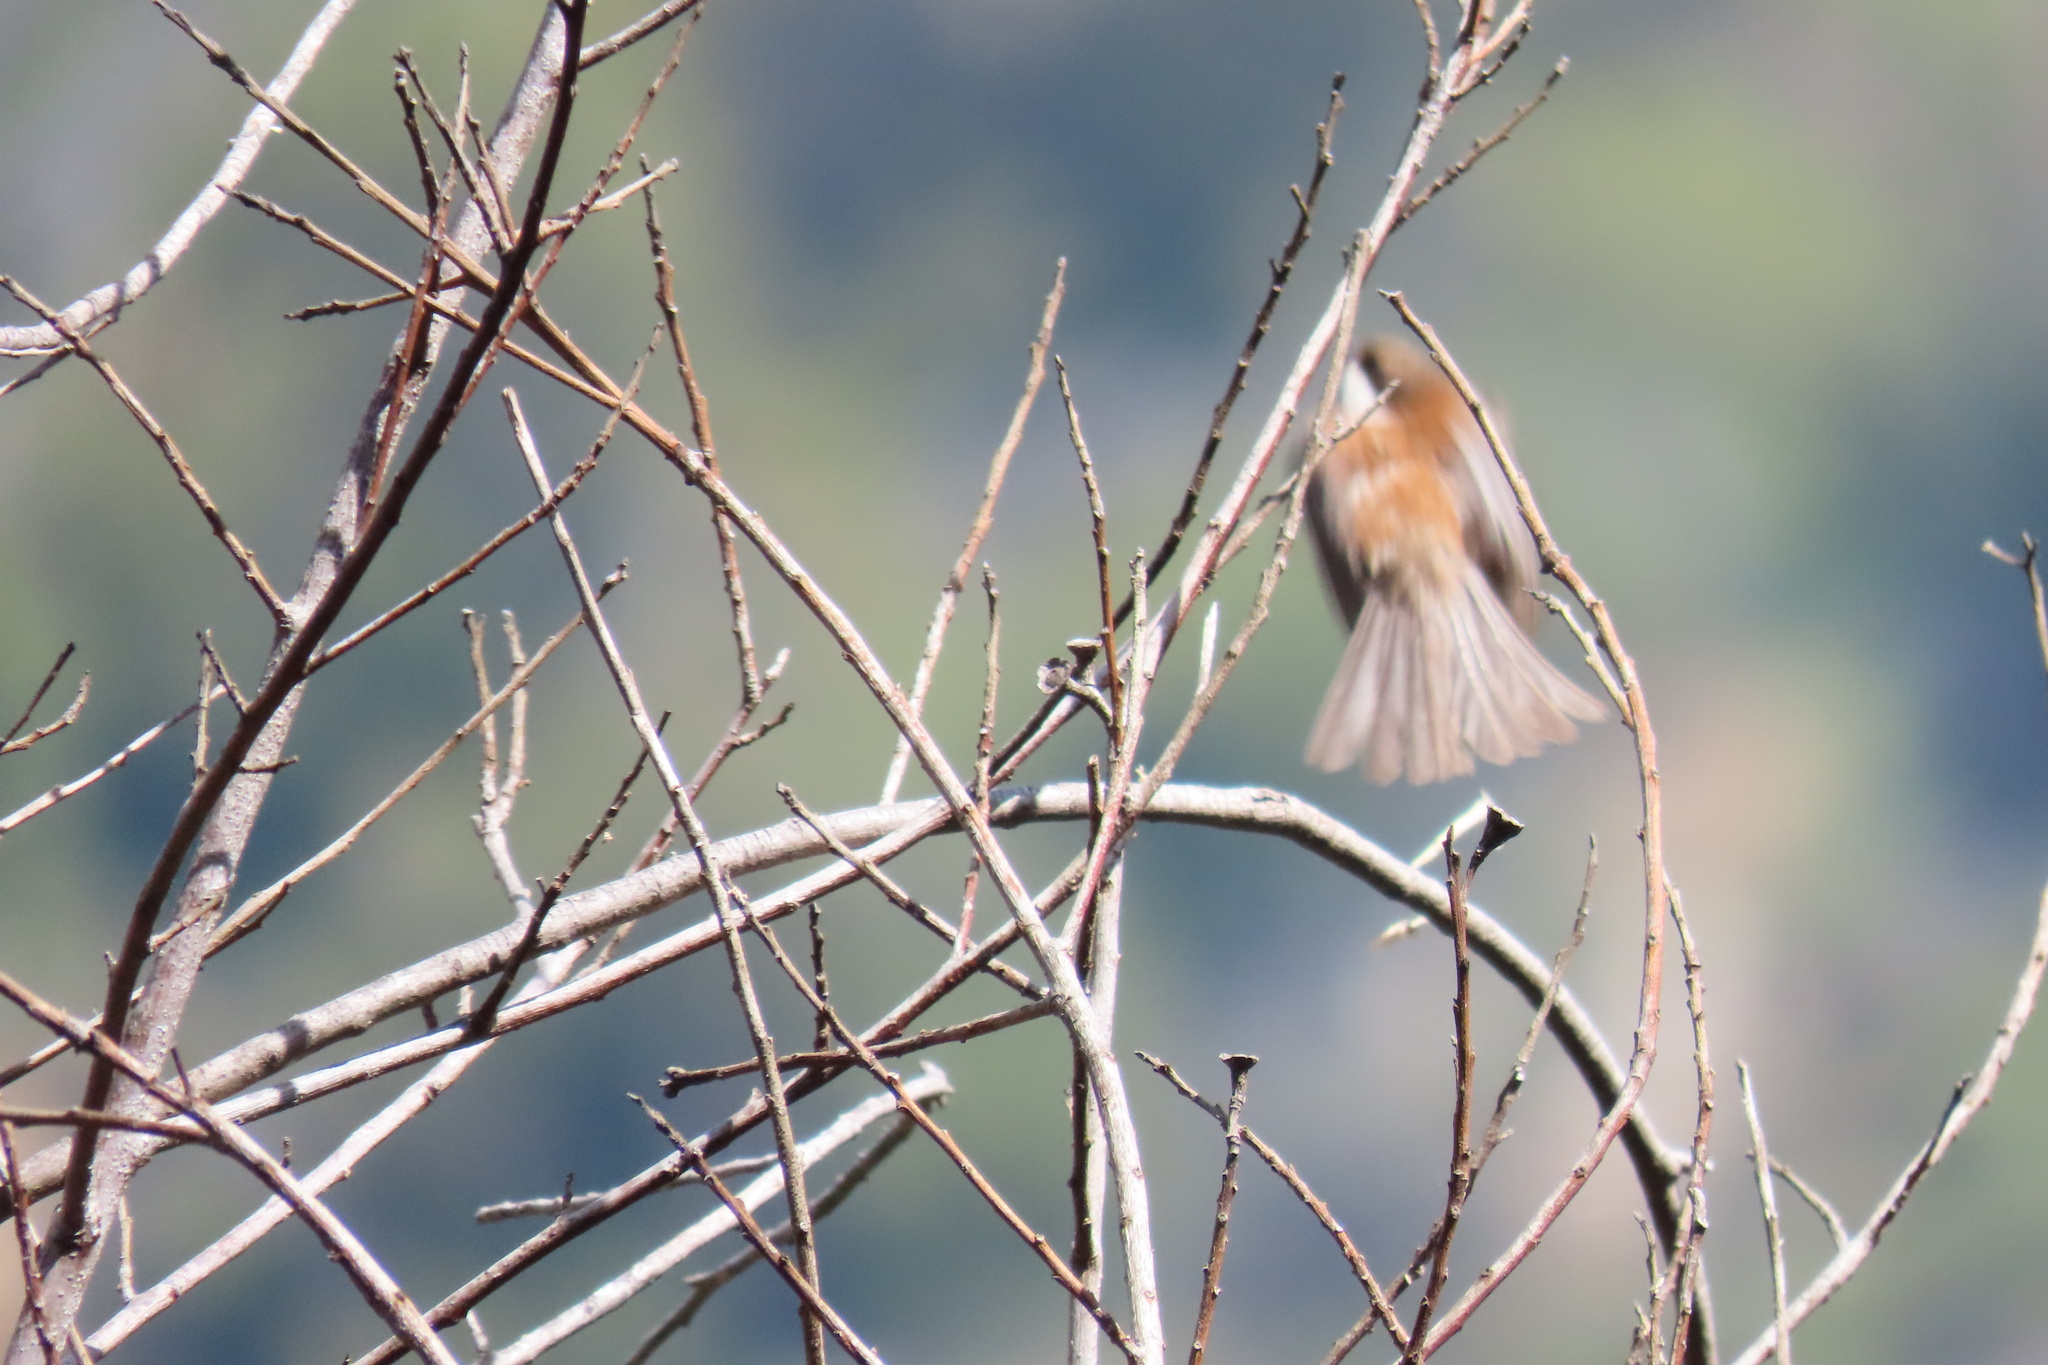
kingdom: Animalia
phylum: Chordata
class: Aves
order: Passeriformes
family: Paridae
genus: Poecile
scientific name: Poecile rufescens
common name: Chestnut-backed chickadee
